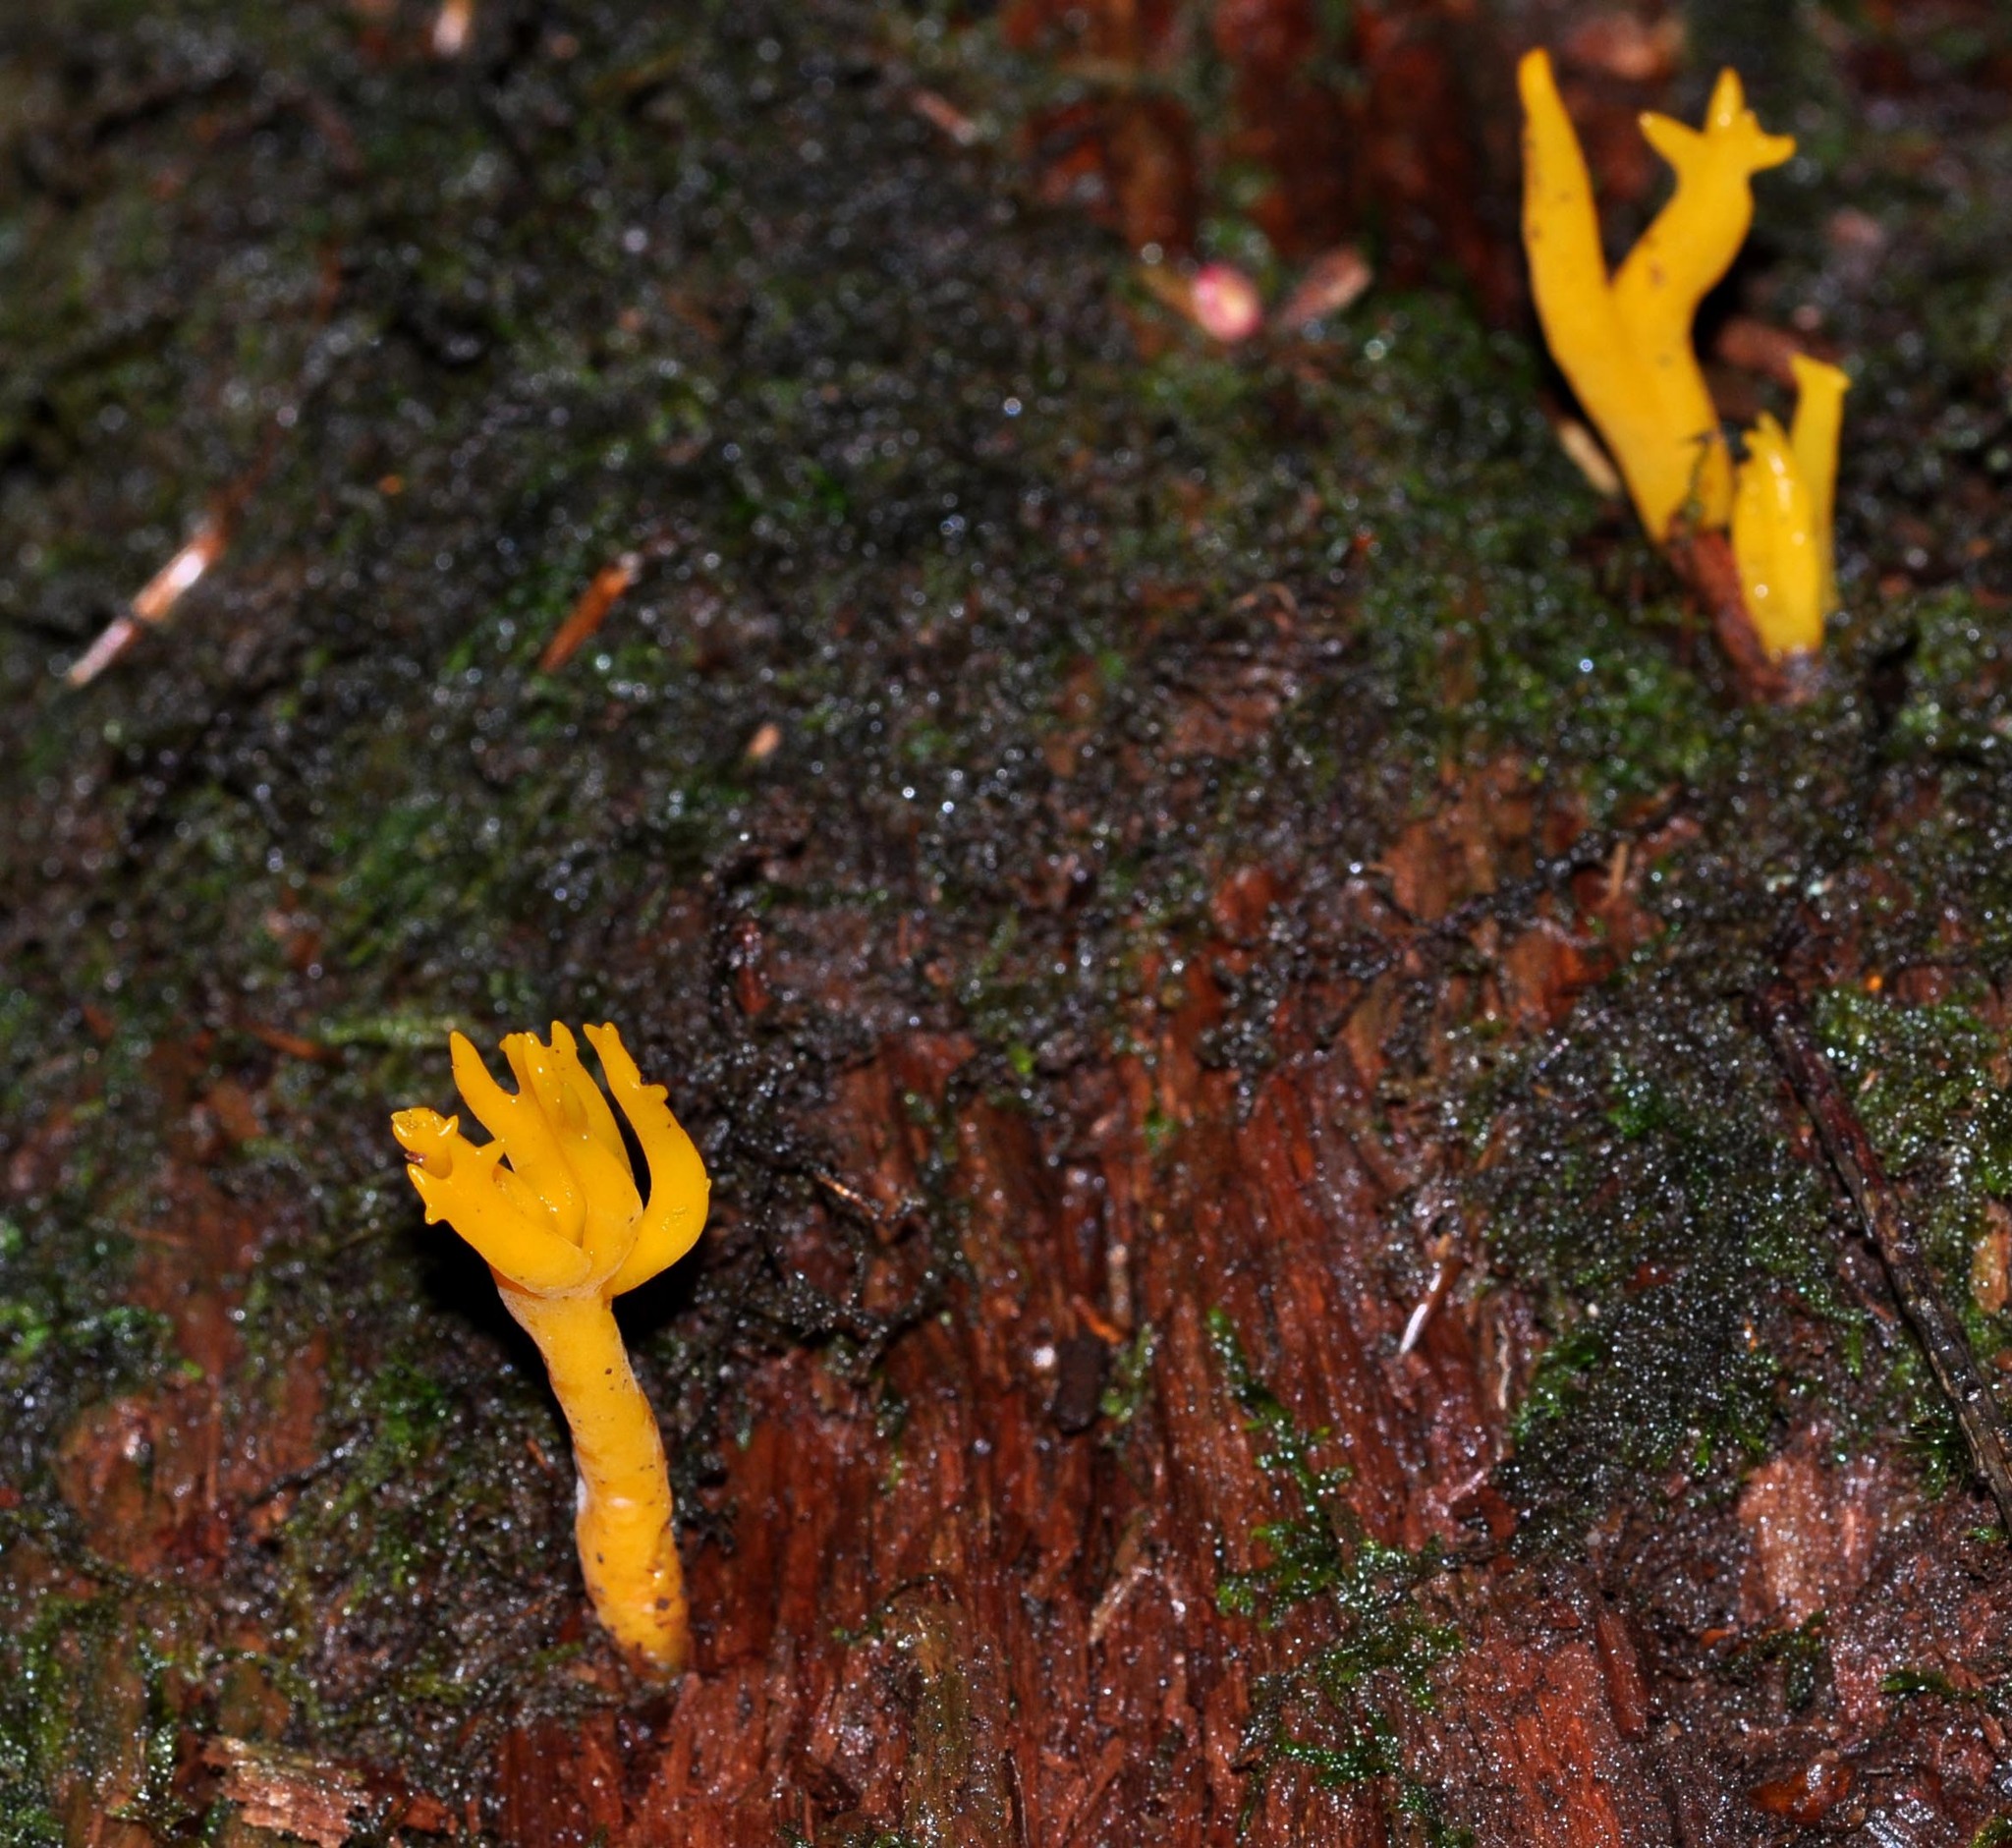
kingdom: Fungi
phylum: Basidiomycota
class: Dacrymycetes
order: Dacrymycetales
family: Dacrymycetaceae
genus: Calocera
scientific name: Calocera viscosa
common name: Yellow stagshorn
